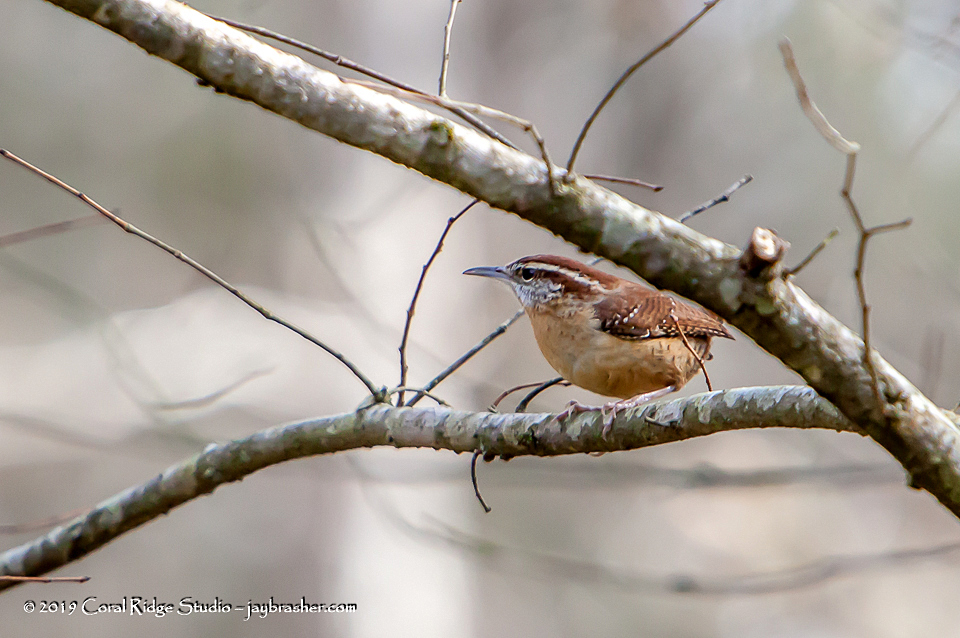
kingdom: Animalia
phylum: Chordata
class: Aves
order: Passeriformes
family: Troglodytidae
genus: Thryothorus
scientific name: Thryothorus ludovicianus
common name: Carolina wren
